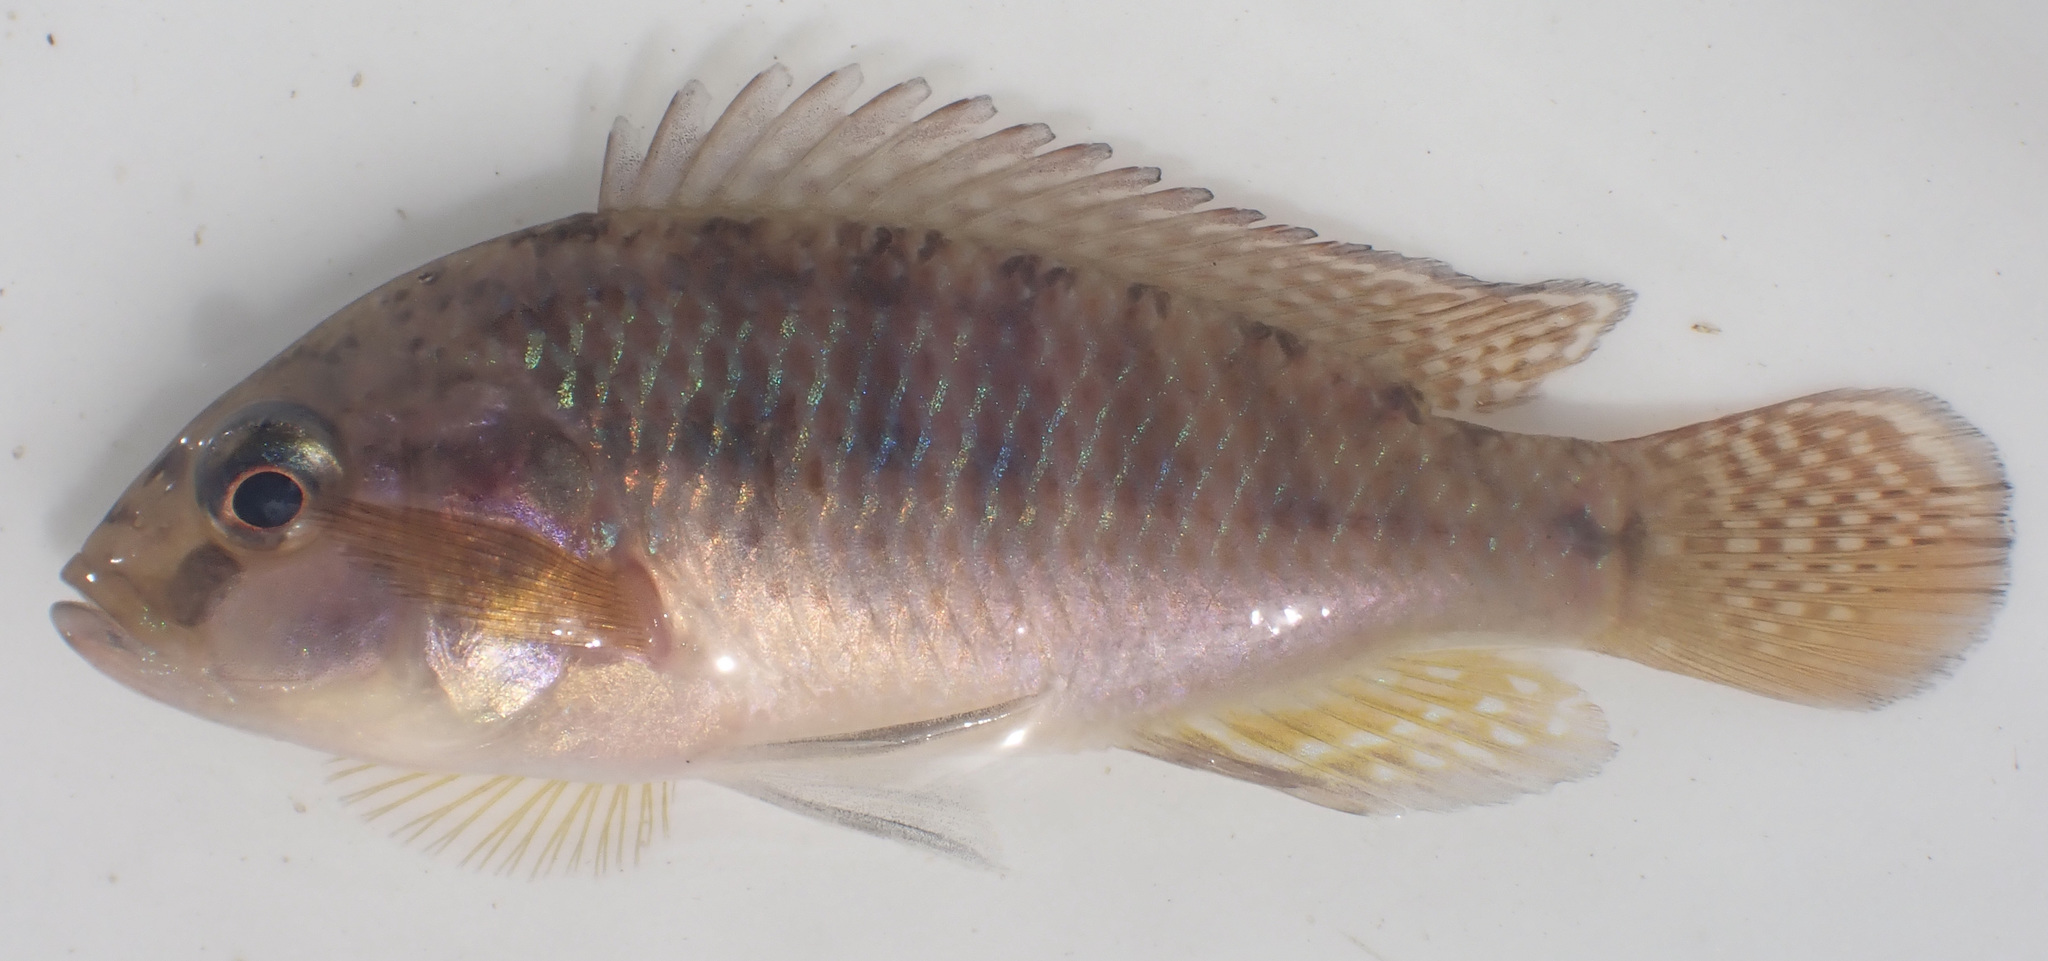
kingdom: Animalia
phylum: Chordata
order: Perciformes
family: Cichlidae
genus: Pseudocrenilabrus
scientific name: Pseudocrenilabrus philander
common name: Southern mouthbrooder
